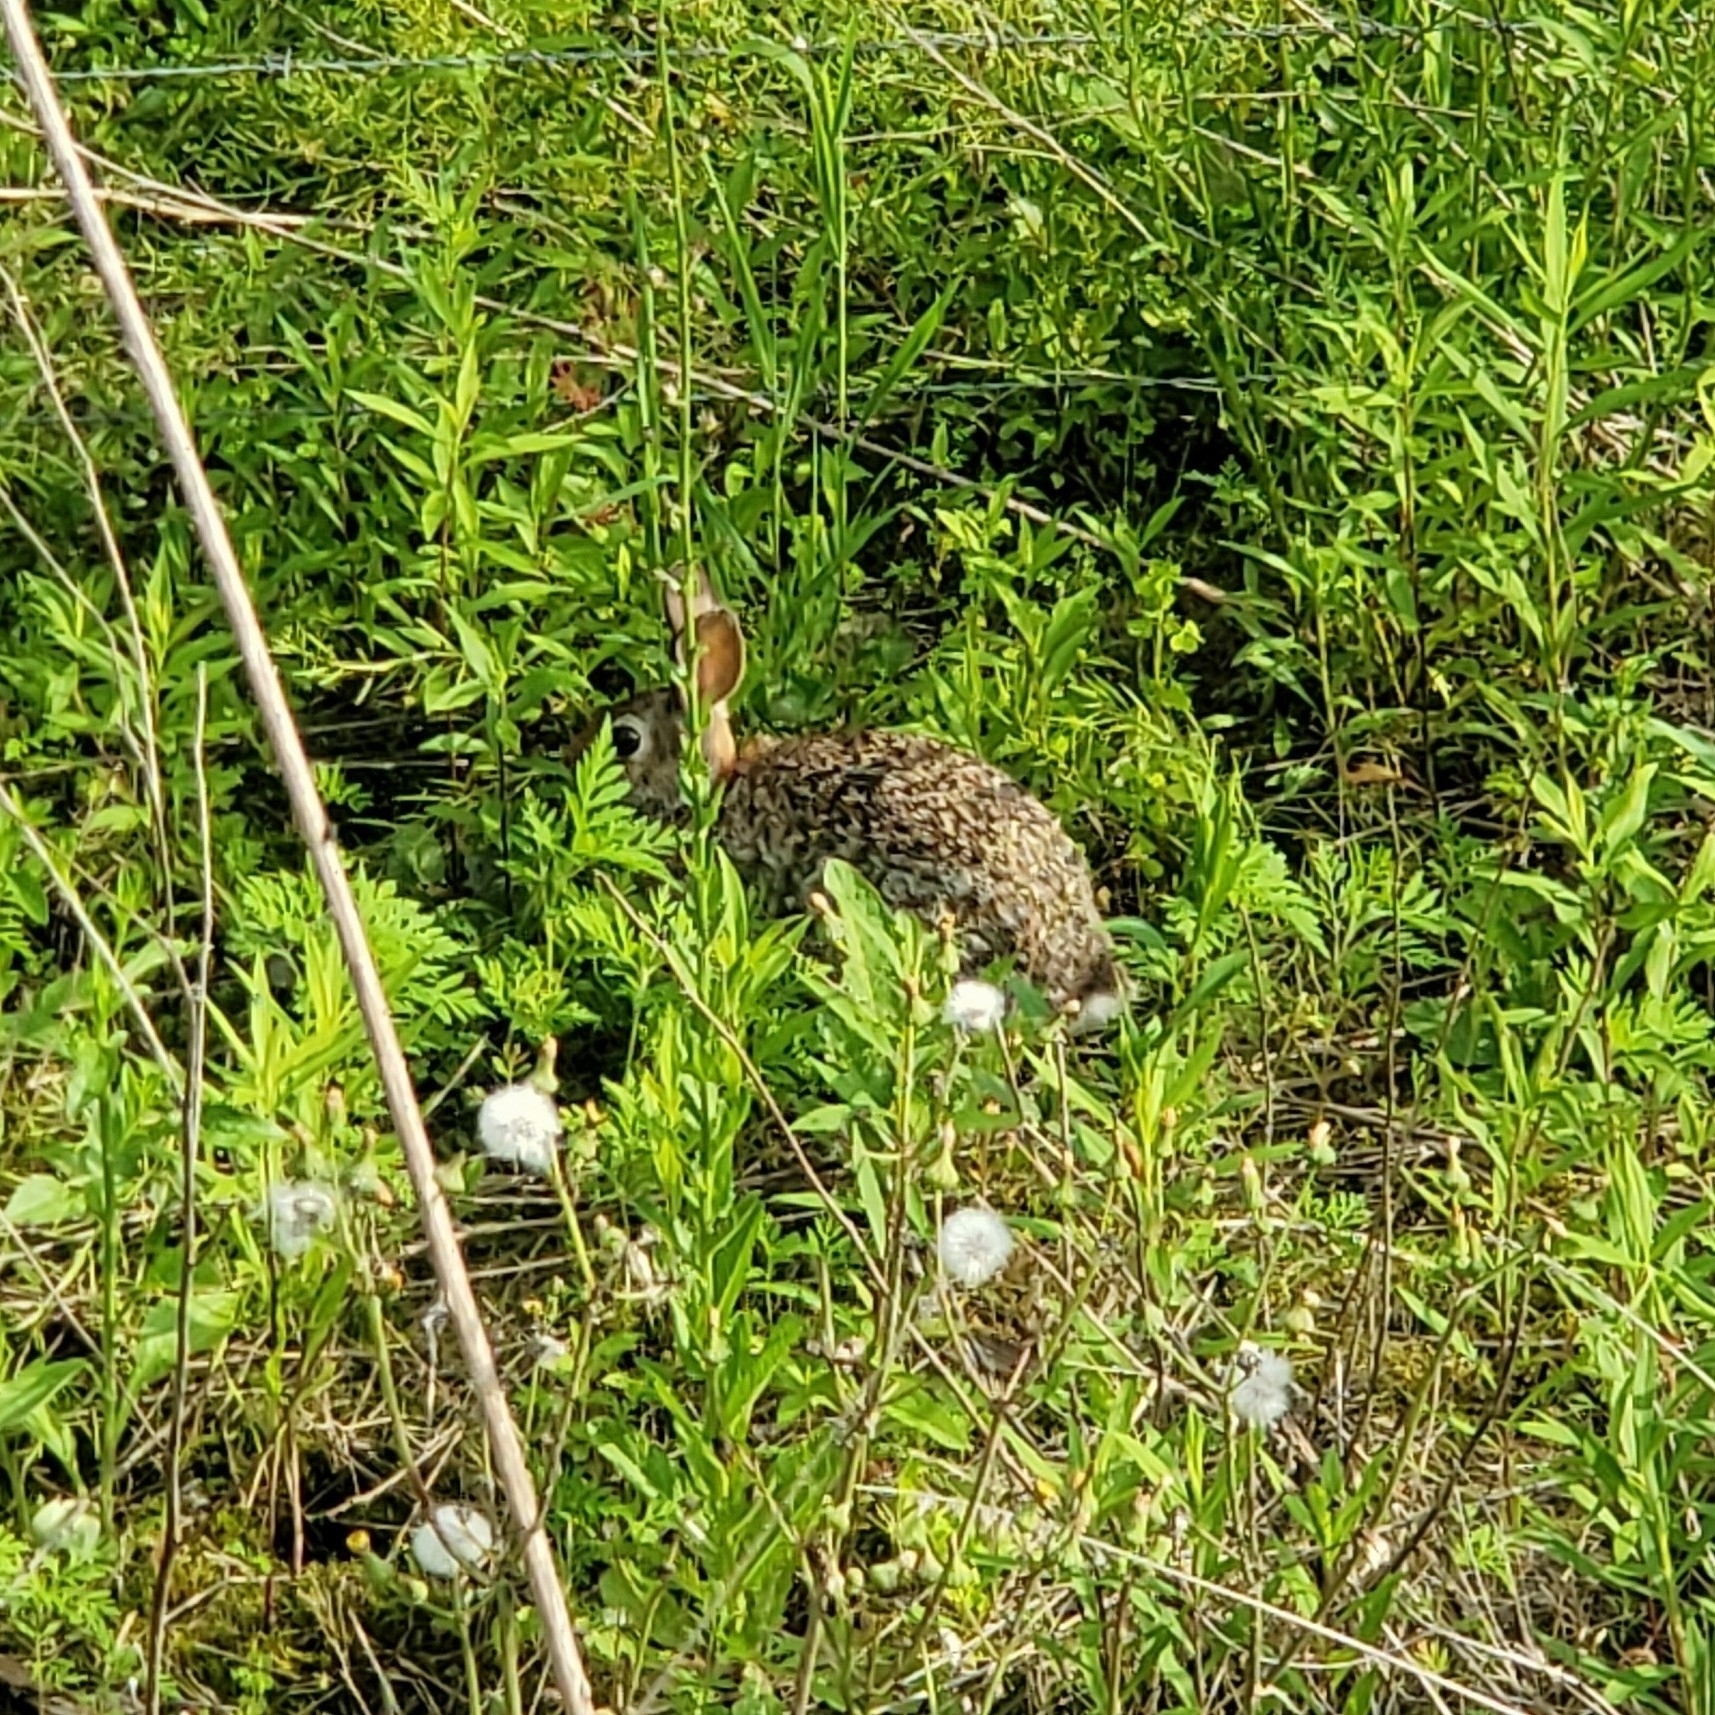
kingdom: Animalia
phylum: Chordata
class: Mammalia
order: Lagomorpha
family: Leporidae
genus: Sylvilagus
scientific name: Sylvilagus floridanus
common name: Eastern cottontail
